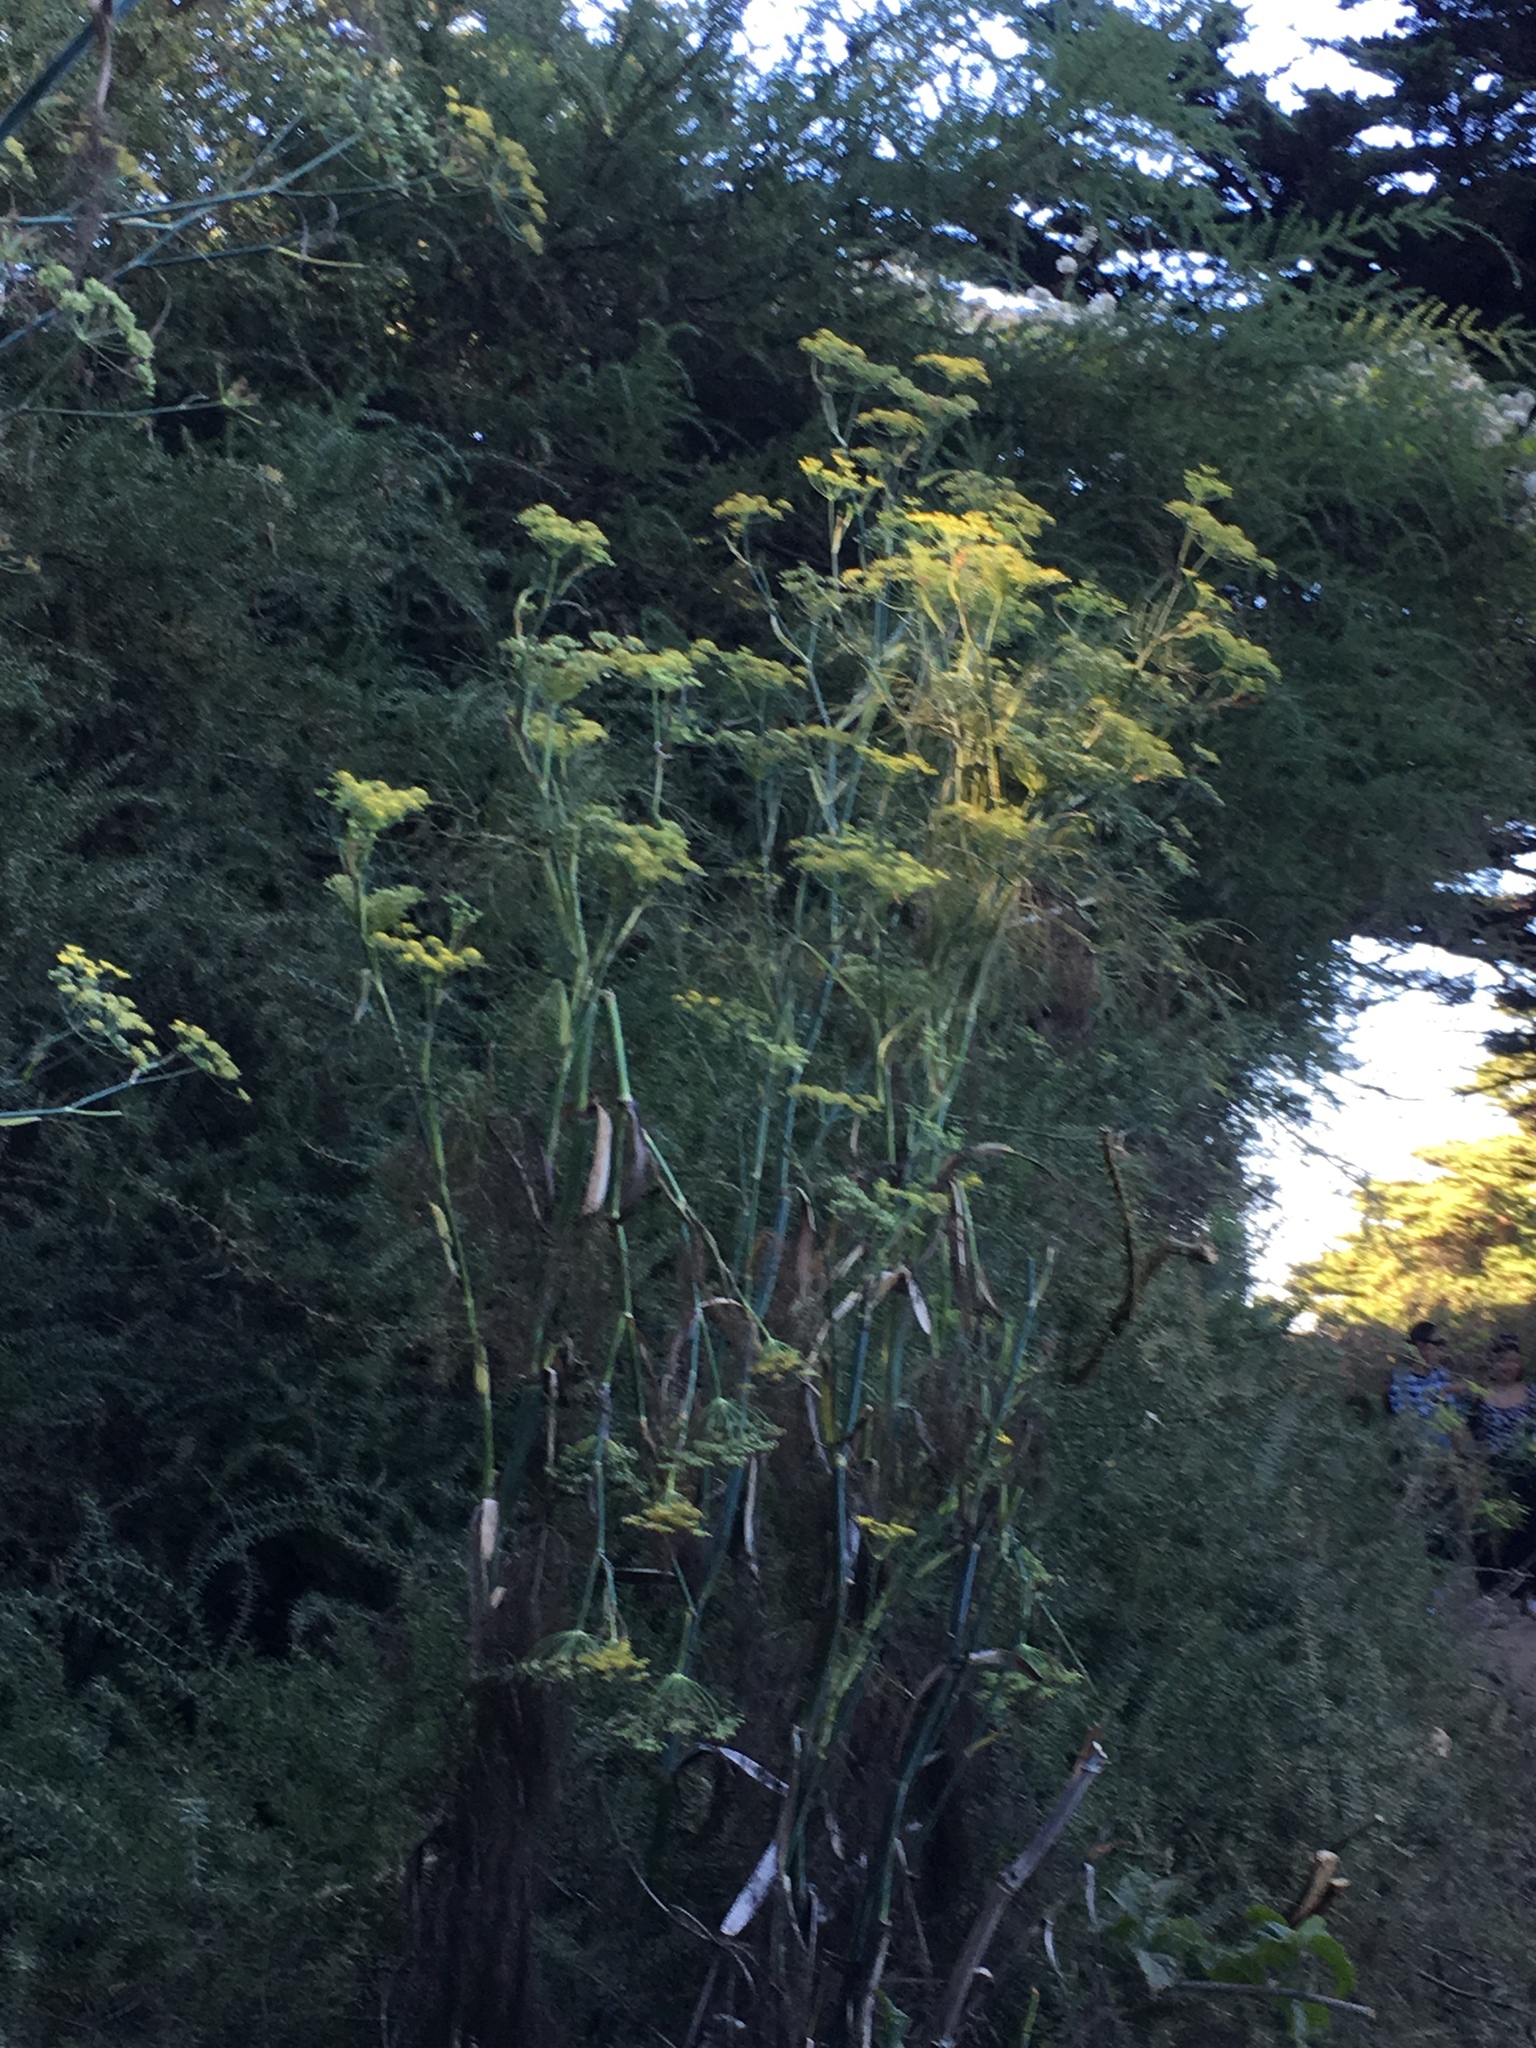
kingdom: Plantae
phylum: Tracheophyta
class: Magnoliopsida
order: Apiales
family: Apiaceae
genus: Foeniculum
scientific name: Foeniculum vulgare
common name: Fennel
